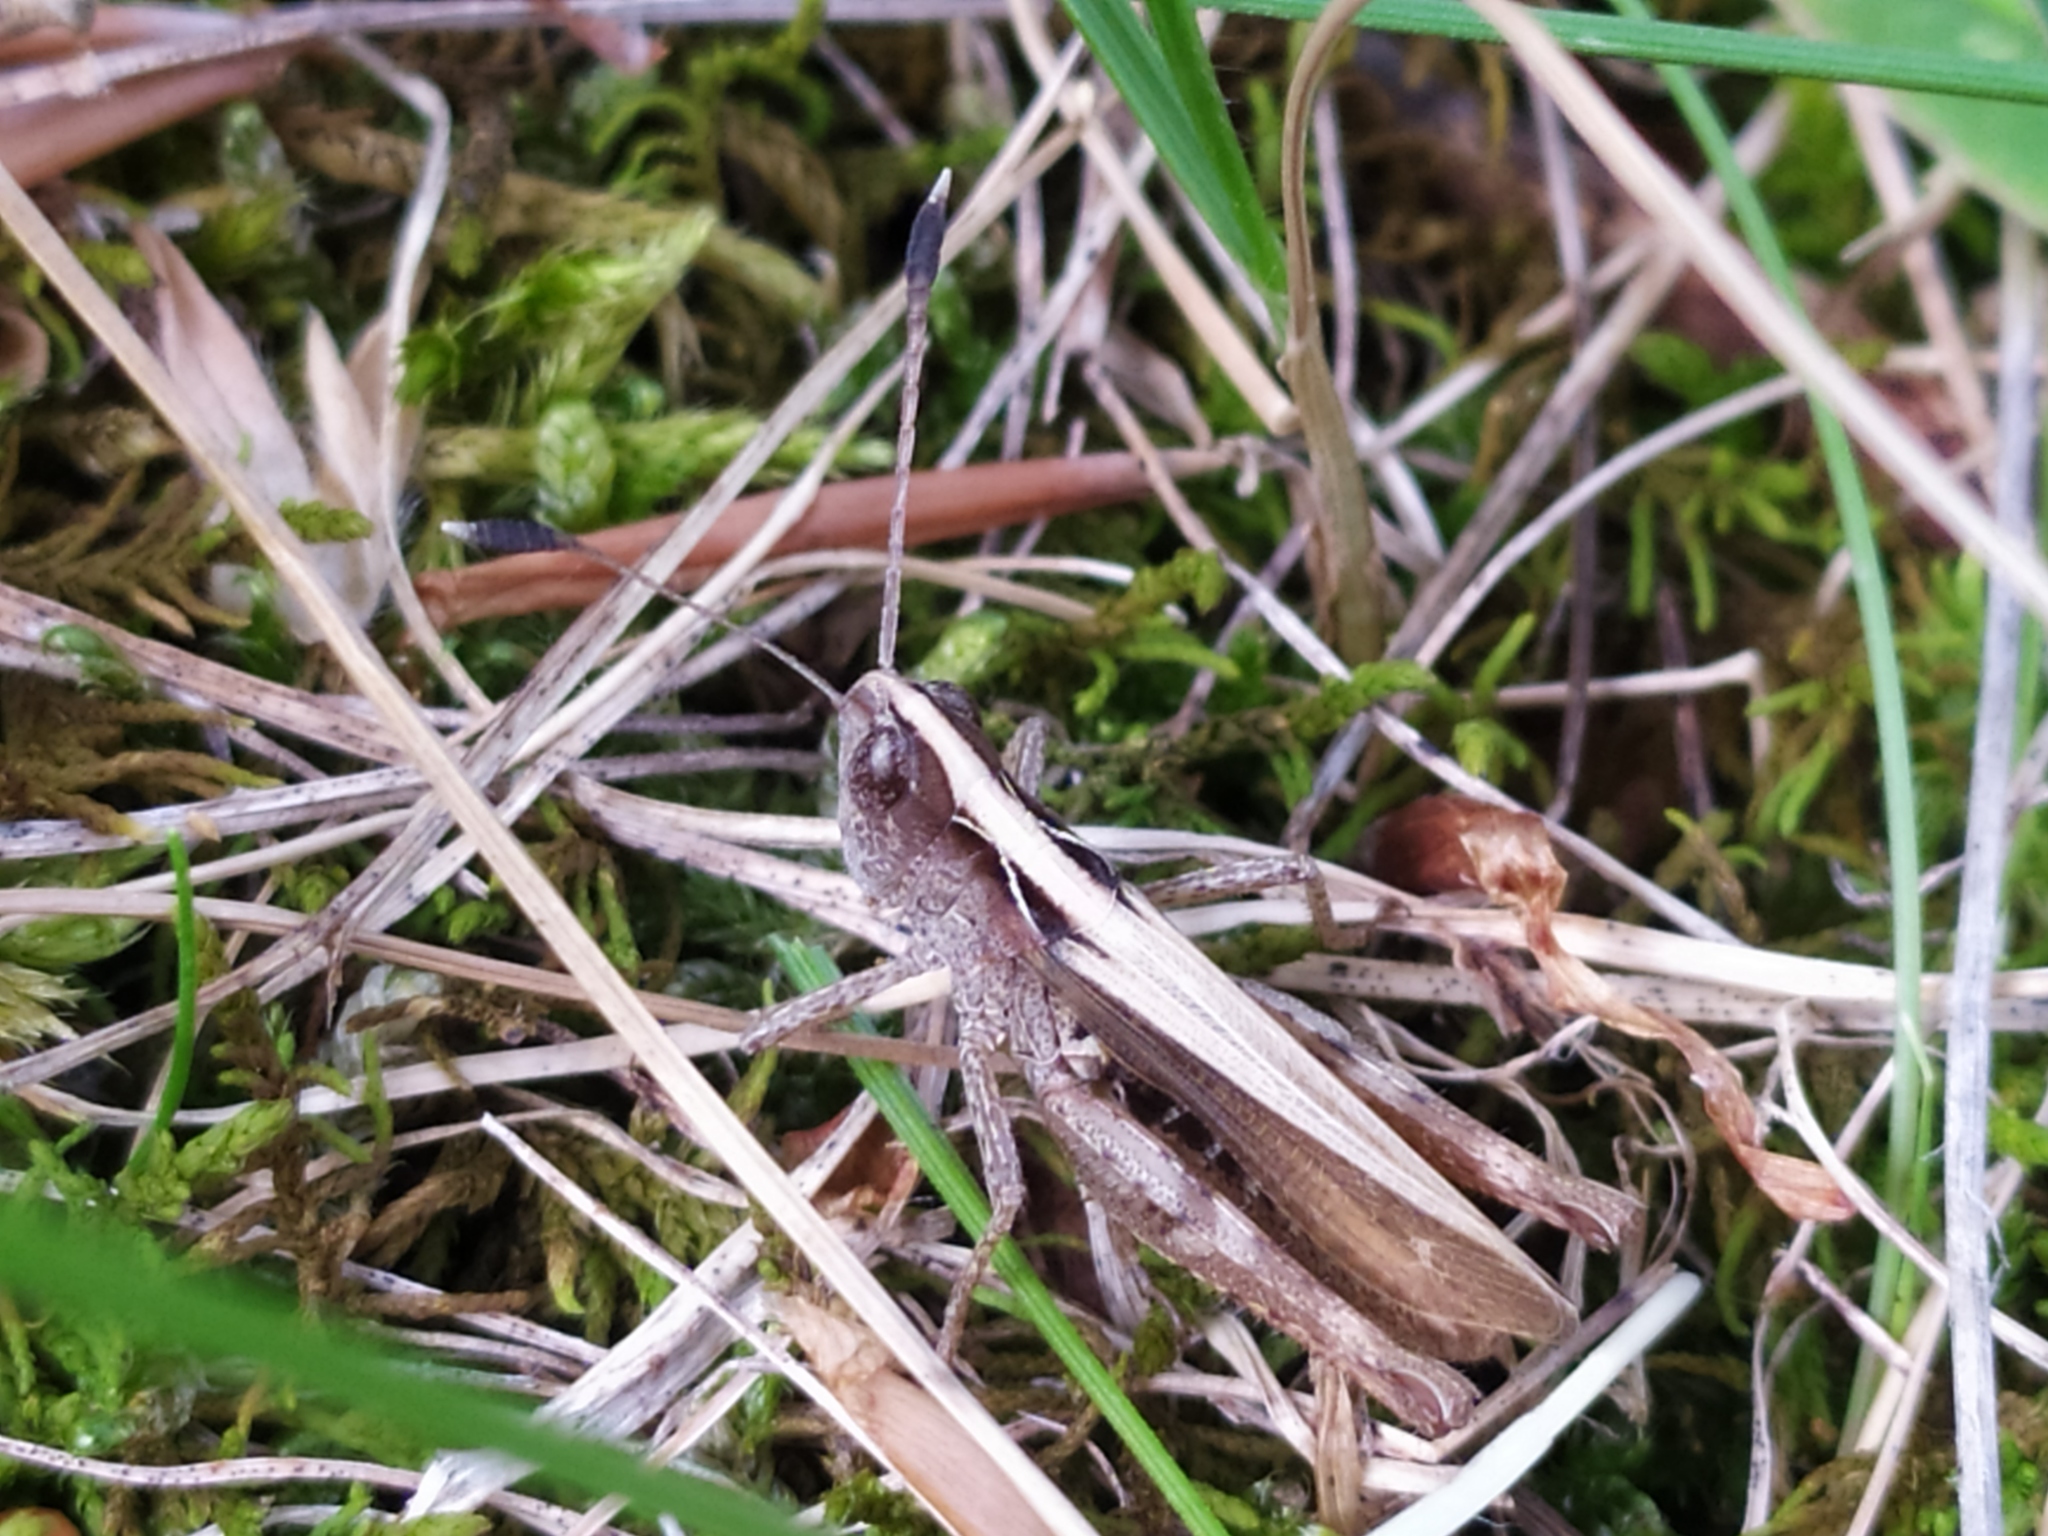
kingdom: Animalia
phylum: Arthropoda
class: Insecta
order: Orthoptera
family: Acrididae
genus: Gomphocerippus
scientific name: Gomphocerippus rufus
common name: Rufous grasshopper
